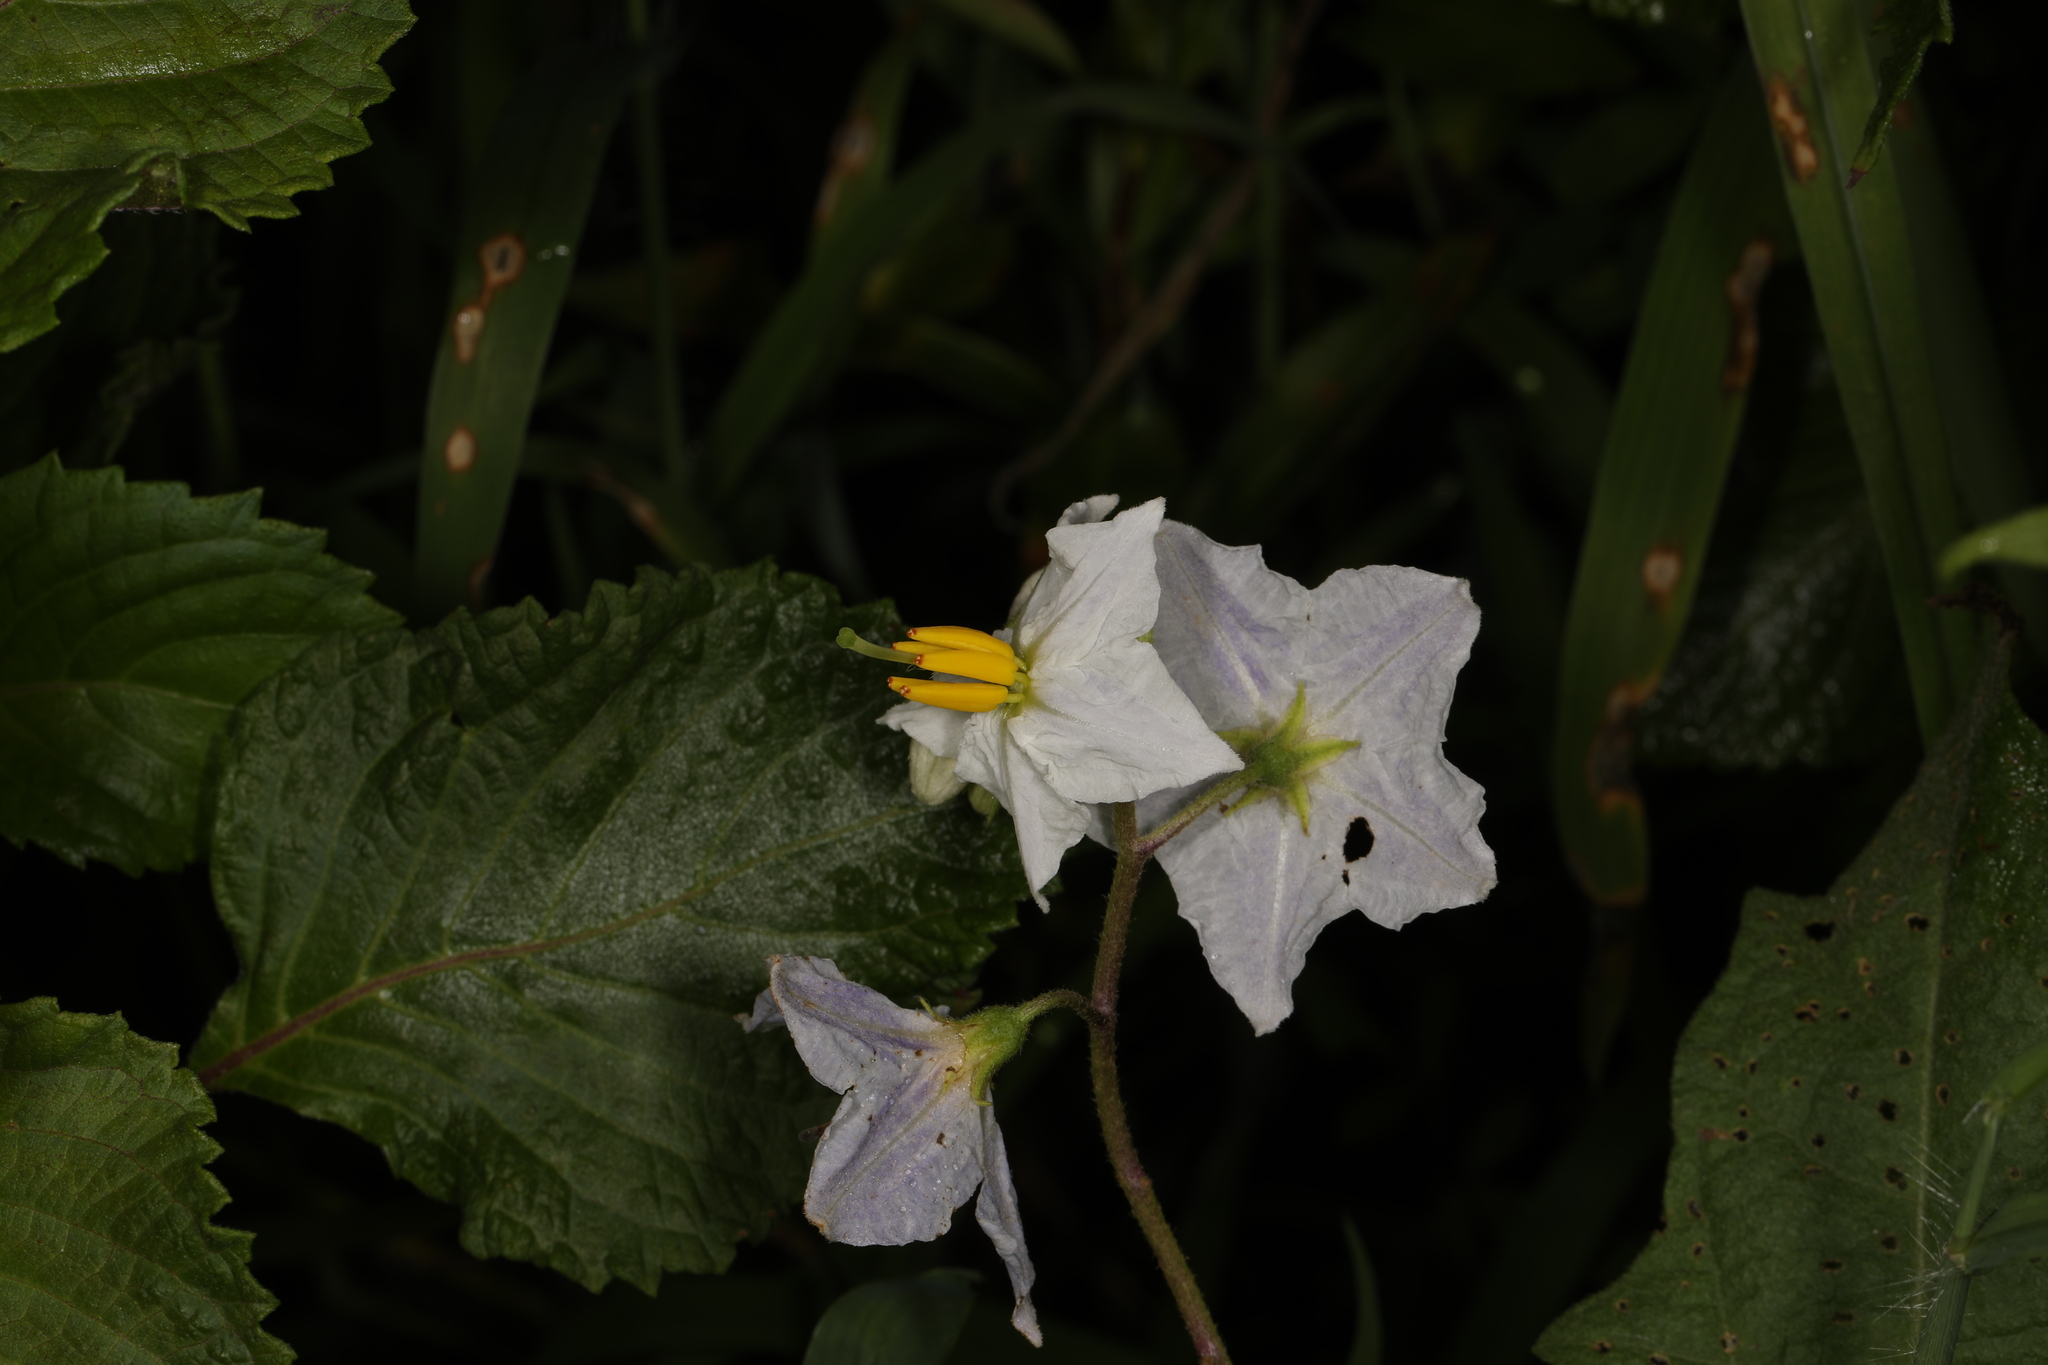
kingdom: Plantae
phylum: Tracheophyta
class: Magnoliopsida
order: Solanales
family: Solanaceae
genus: Solanum
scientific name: Solanum carolinense
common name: Horse-nettle
